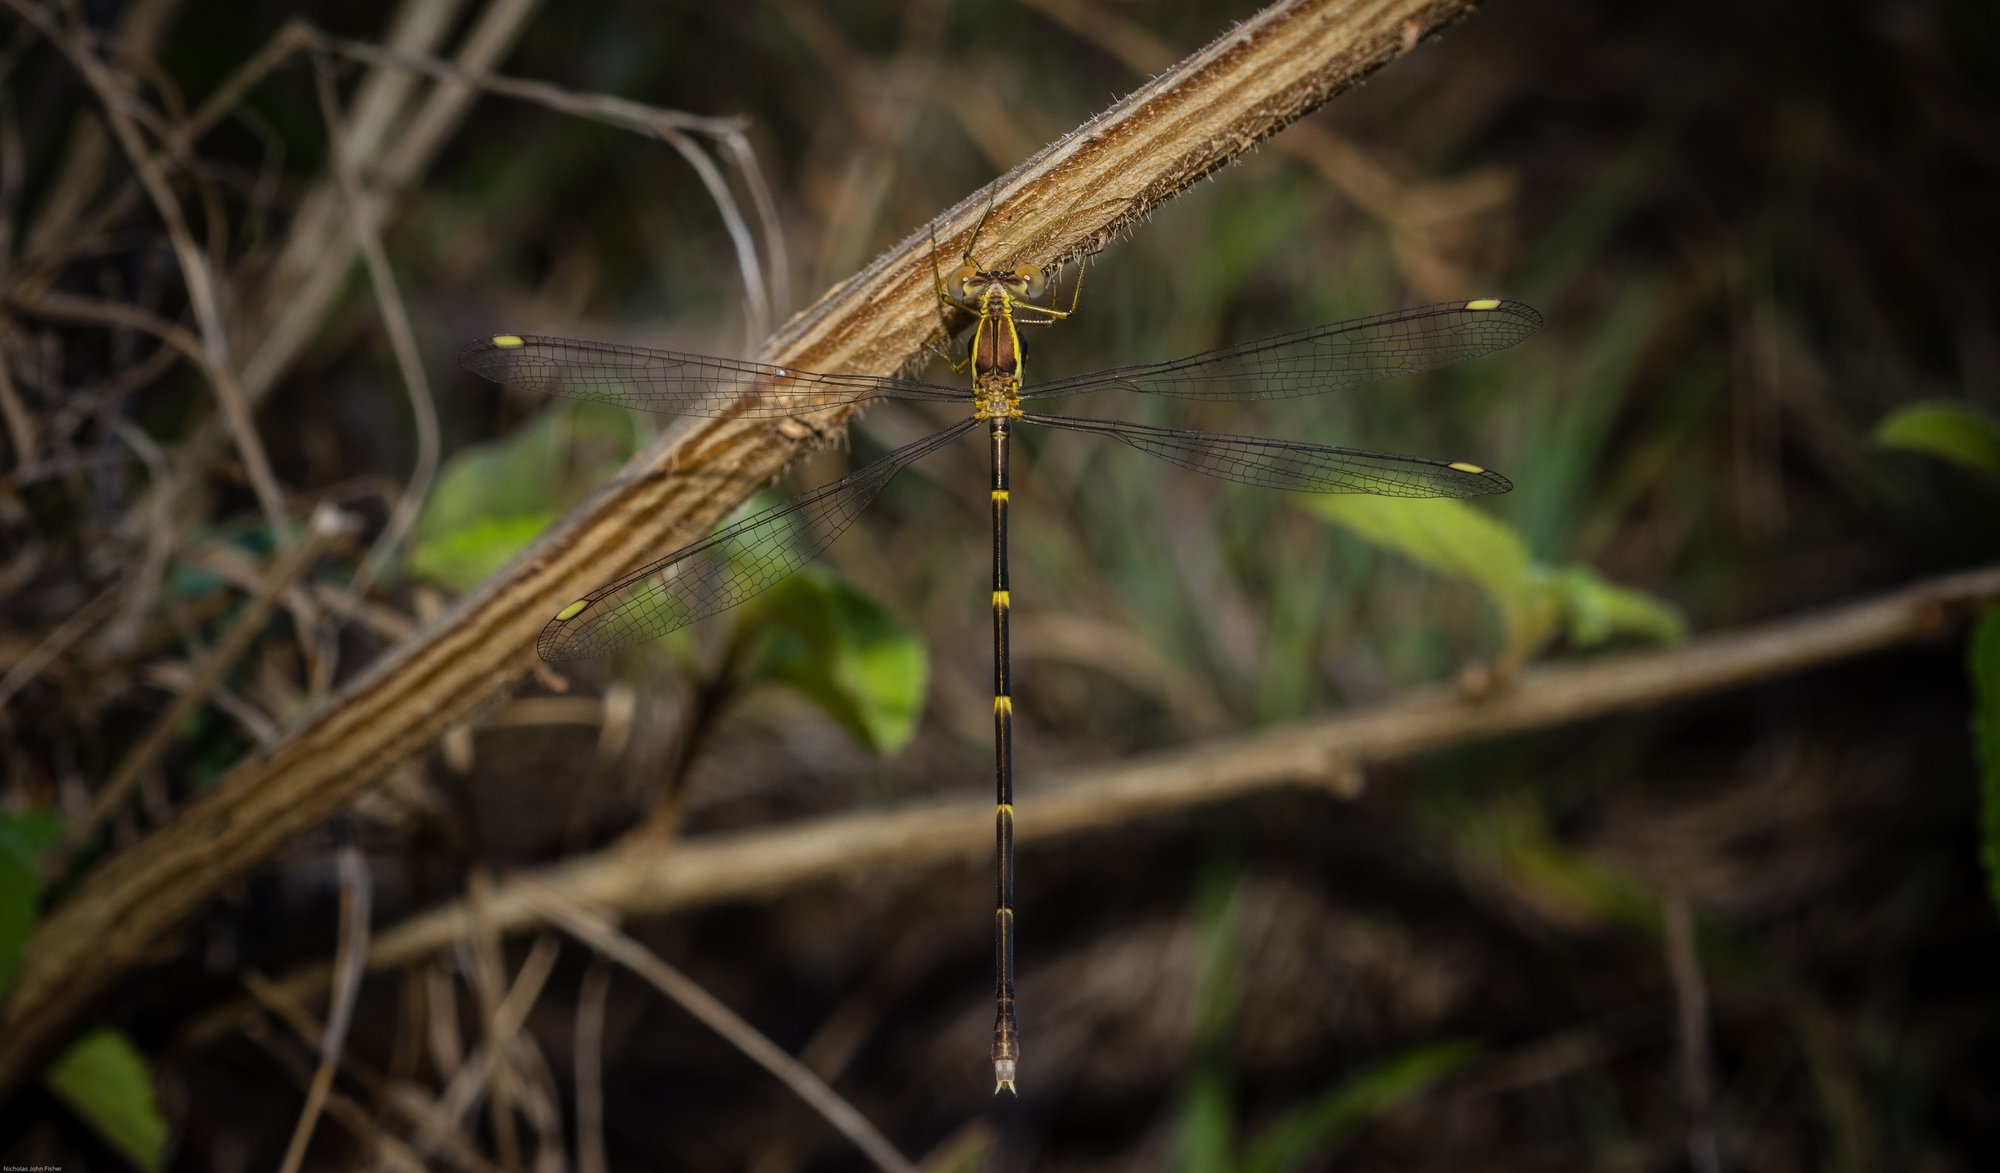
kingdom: Animalia
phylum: Arthropoda
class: Insecta
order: Odonata
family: Synlestidae
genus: Episynlestes
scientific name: Episynlestes albicaudus
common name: Southern whitetip
